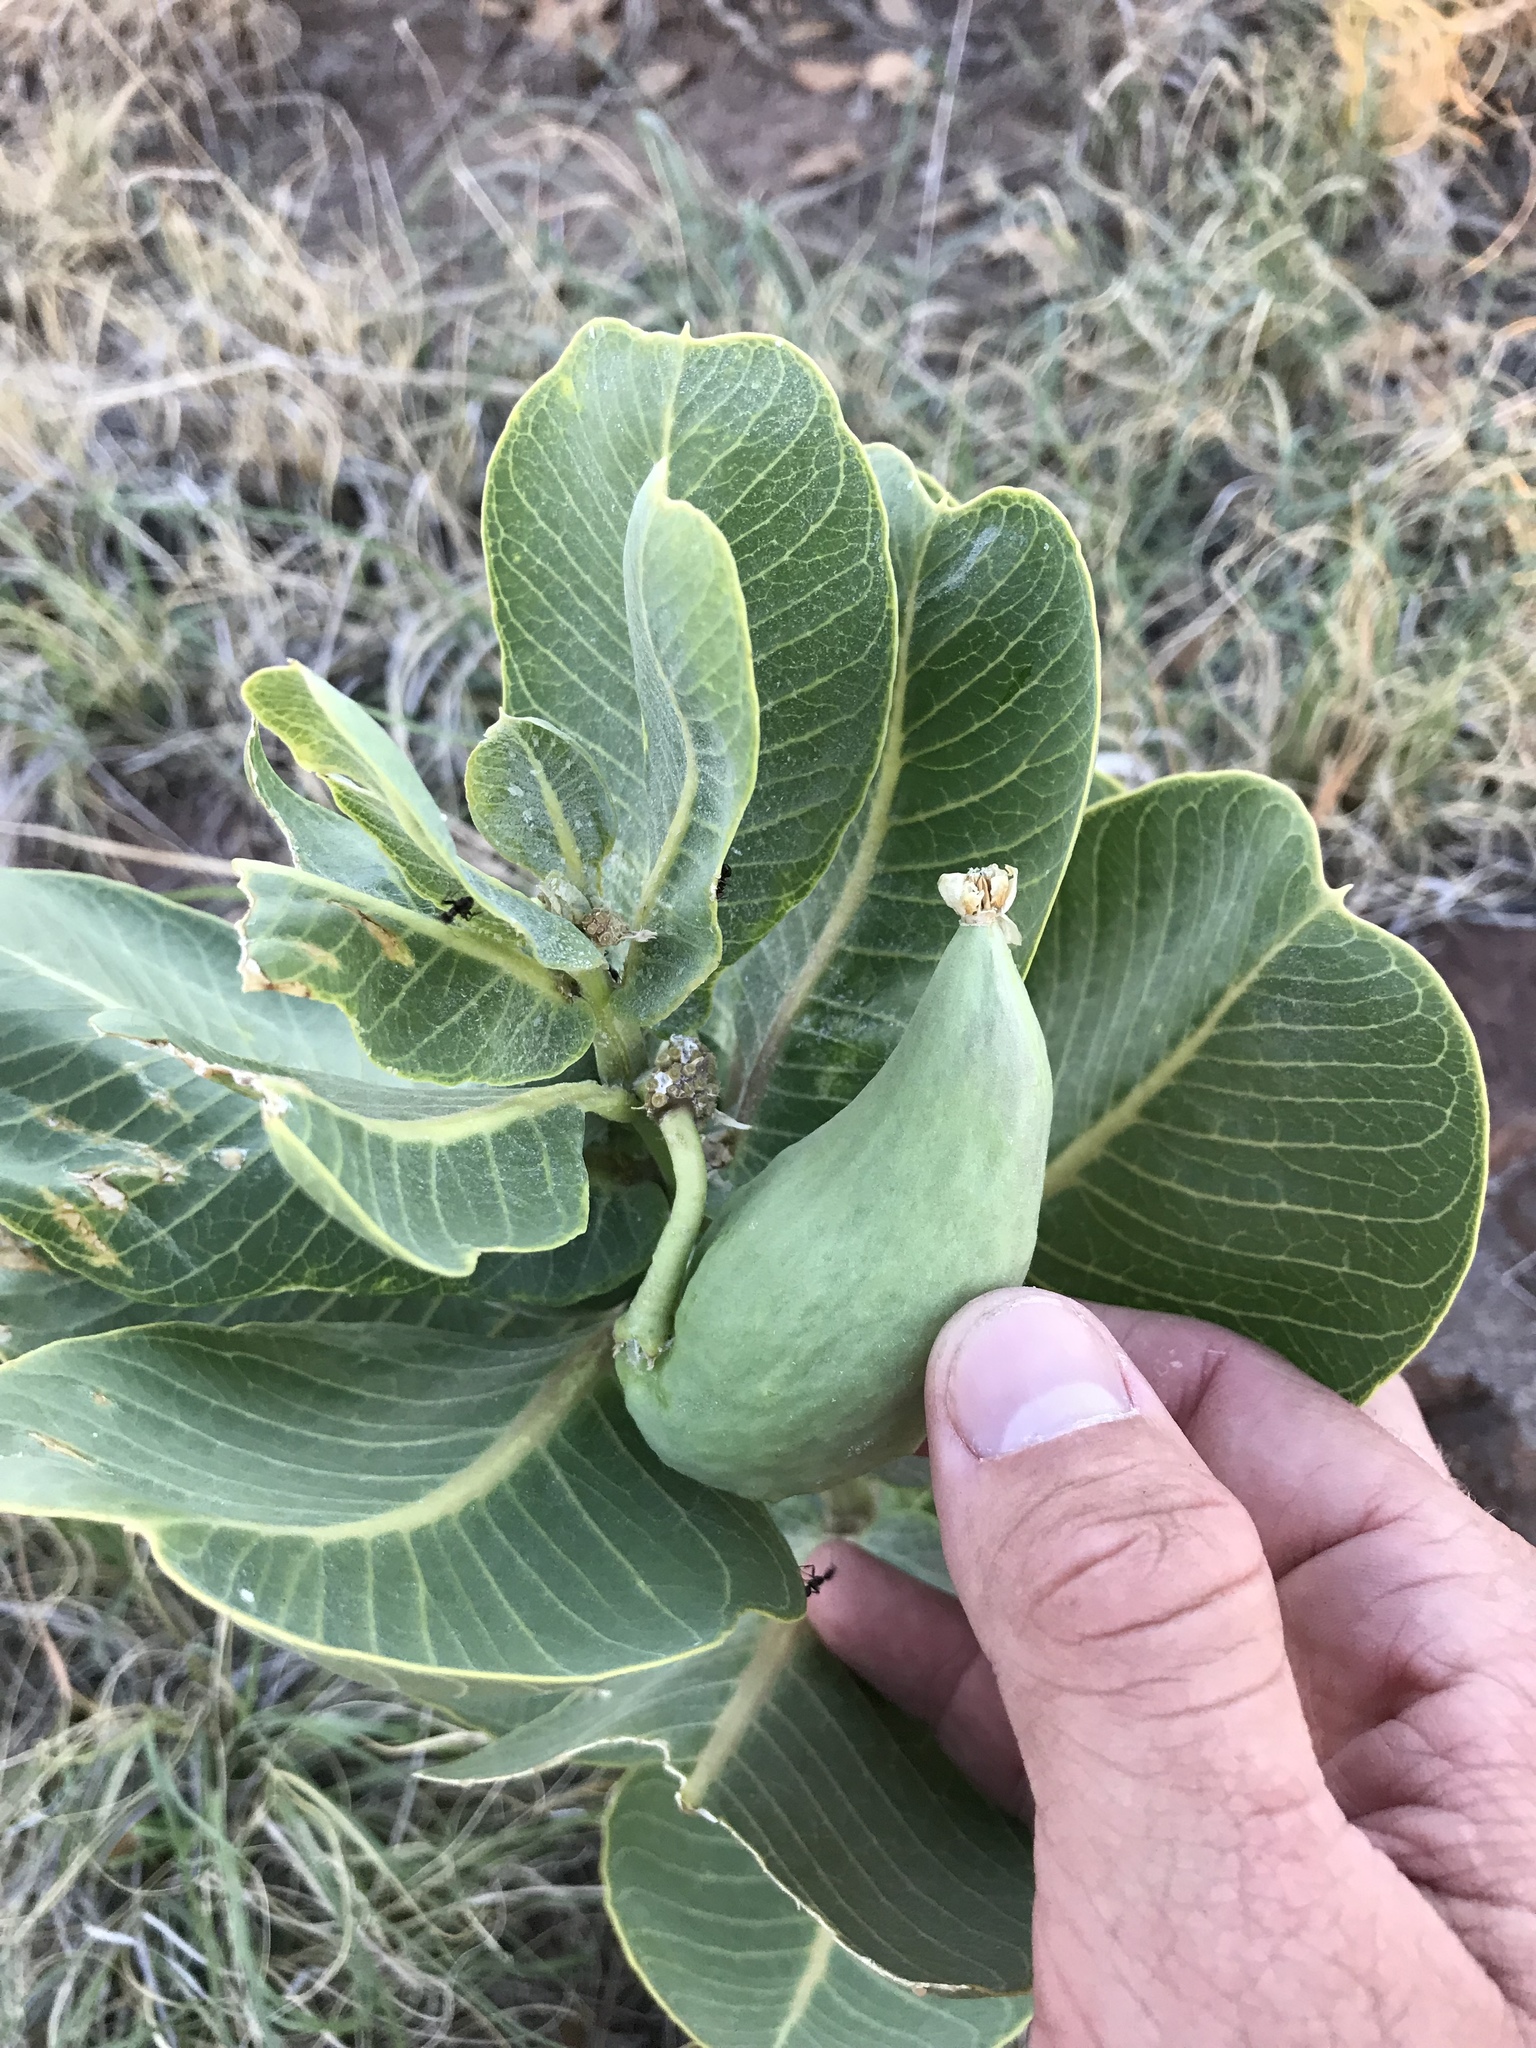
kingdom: Plantae
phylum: Tracheophyta
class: Magnoliopsida
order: Gentianales
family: Apocynaceae
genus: Asclepias
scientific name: Asclepias latifolia
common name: Broadleaf milkweed
